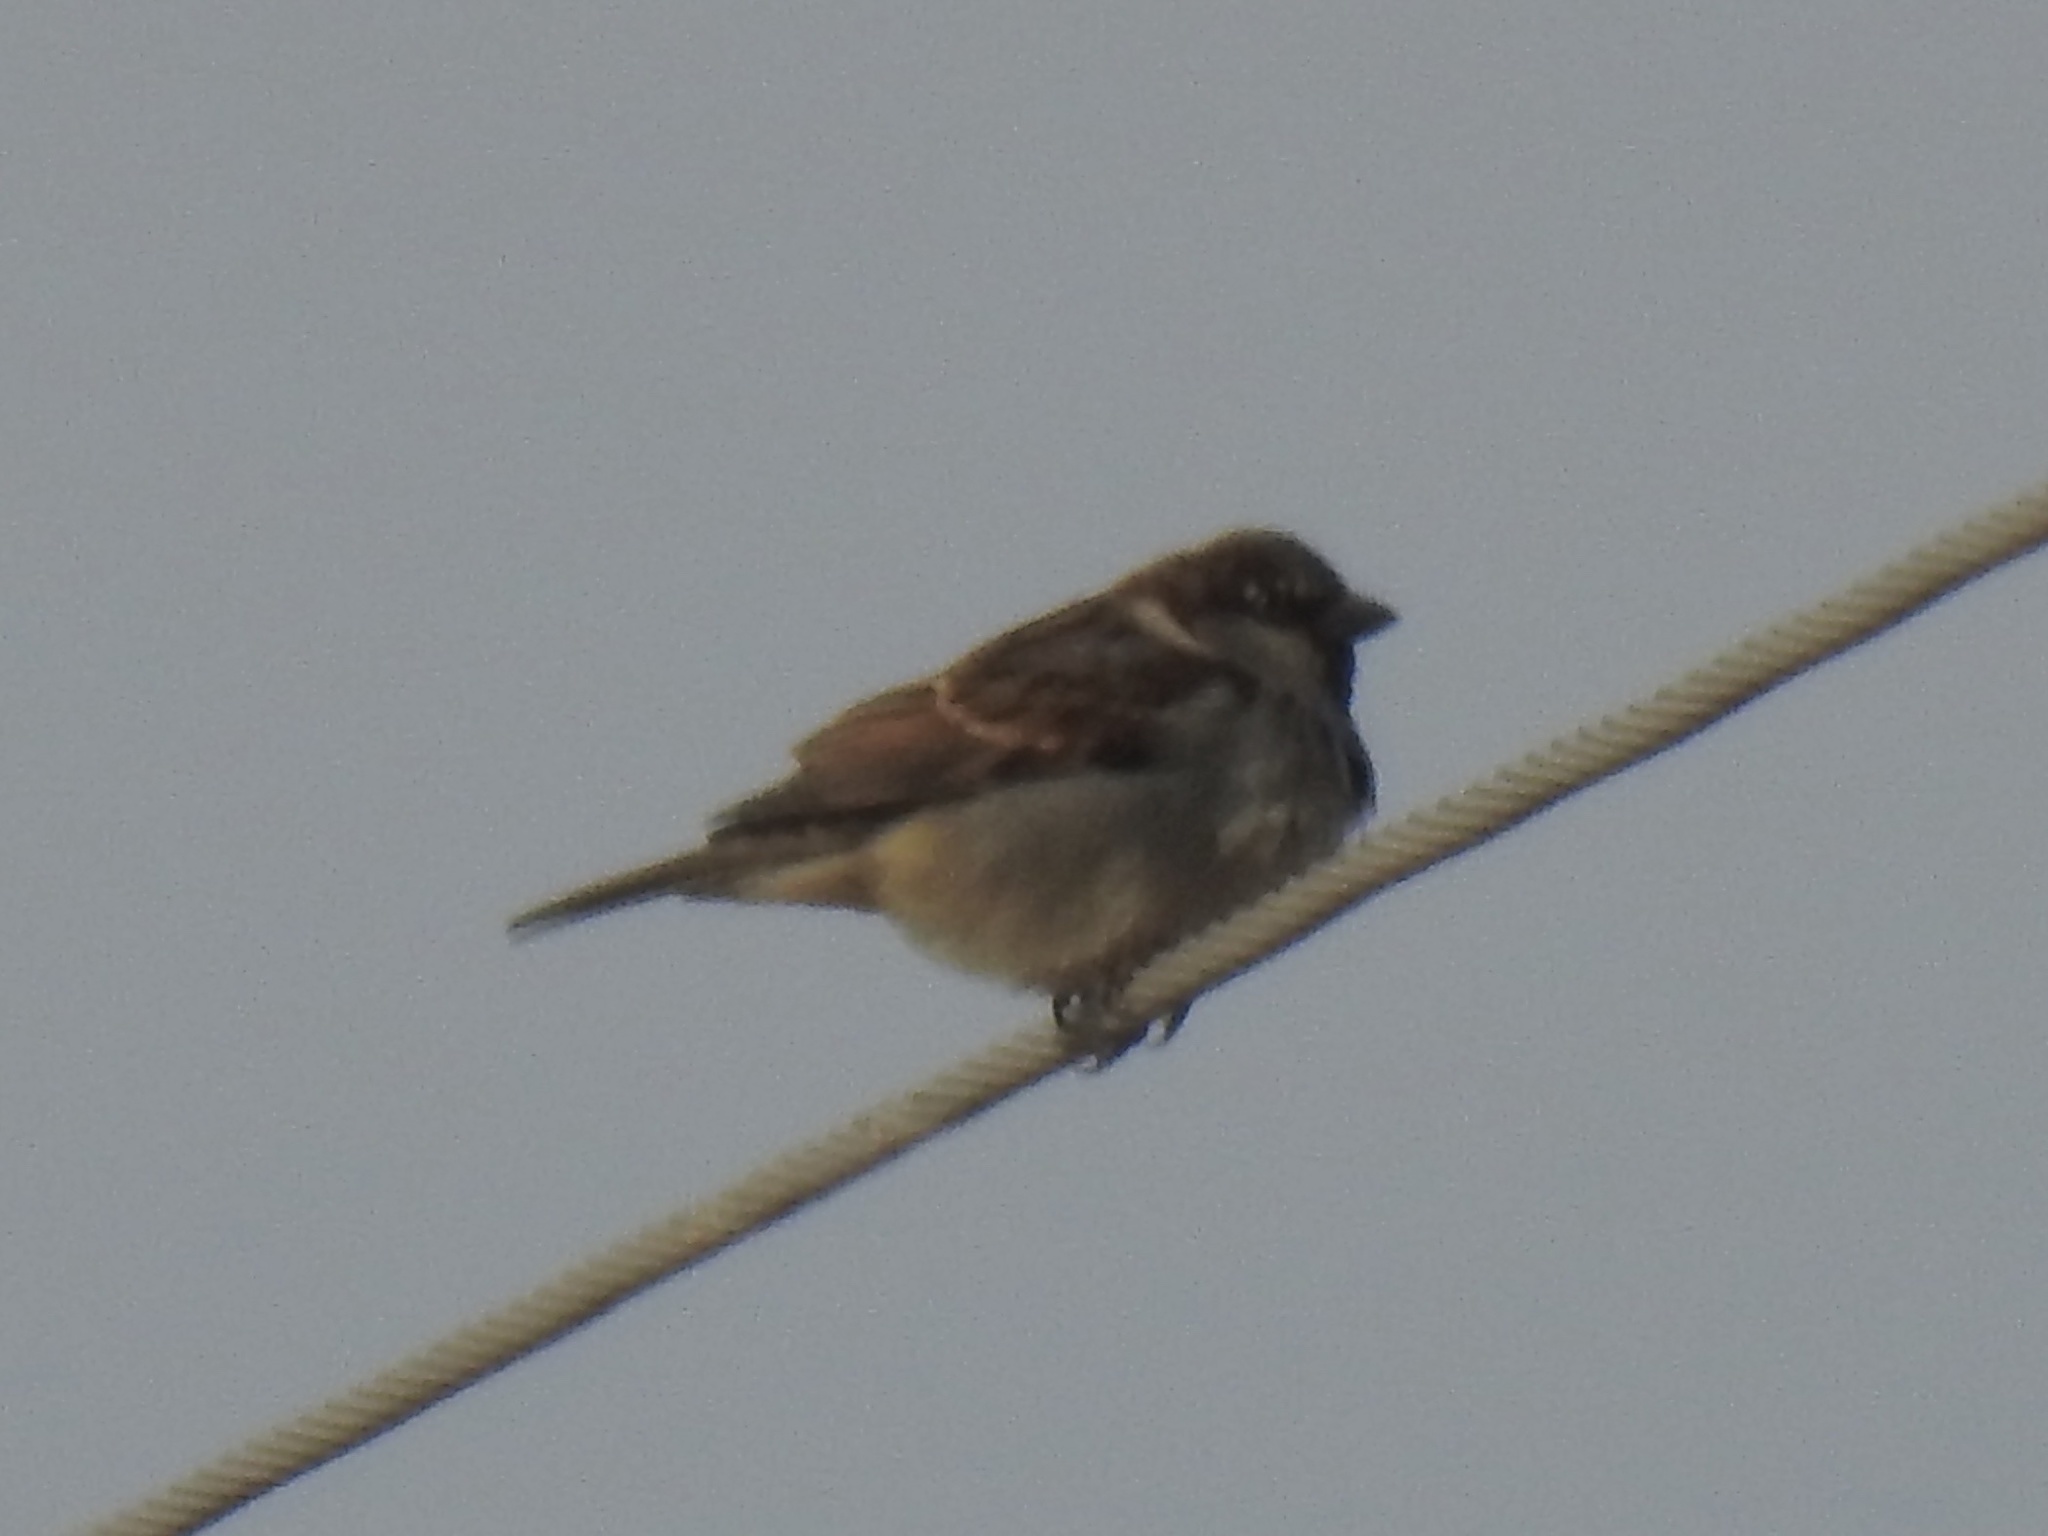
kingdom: Animalia
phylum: Chordata
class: Aves
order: Passeriformes
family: Passeridae
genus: Passer
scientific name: Passer domesticus
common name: House sparrow
